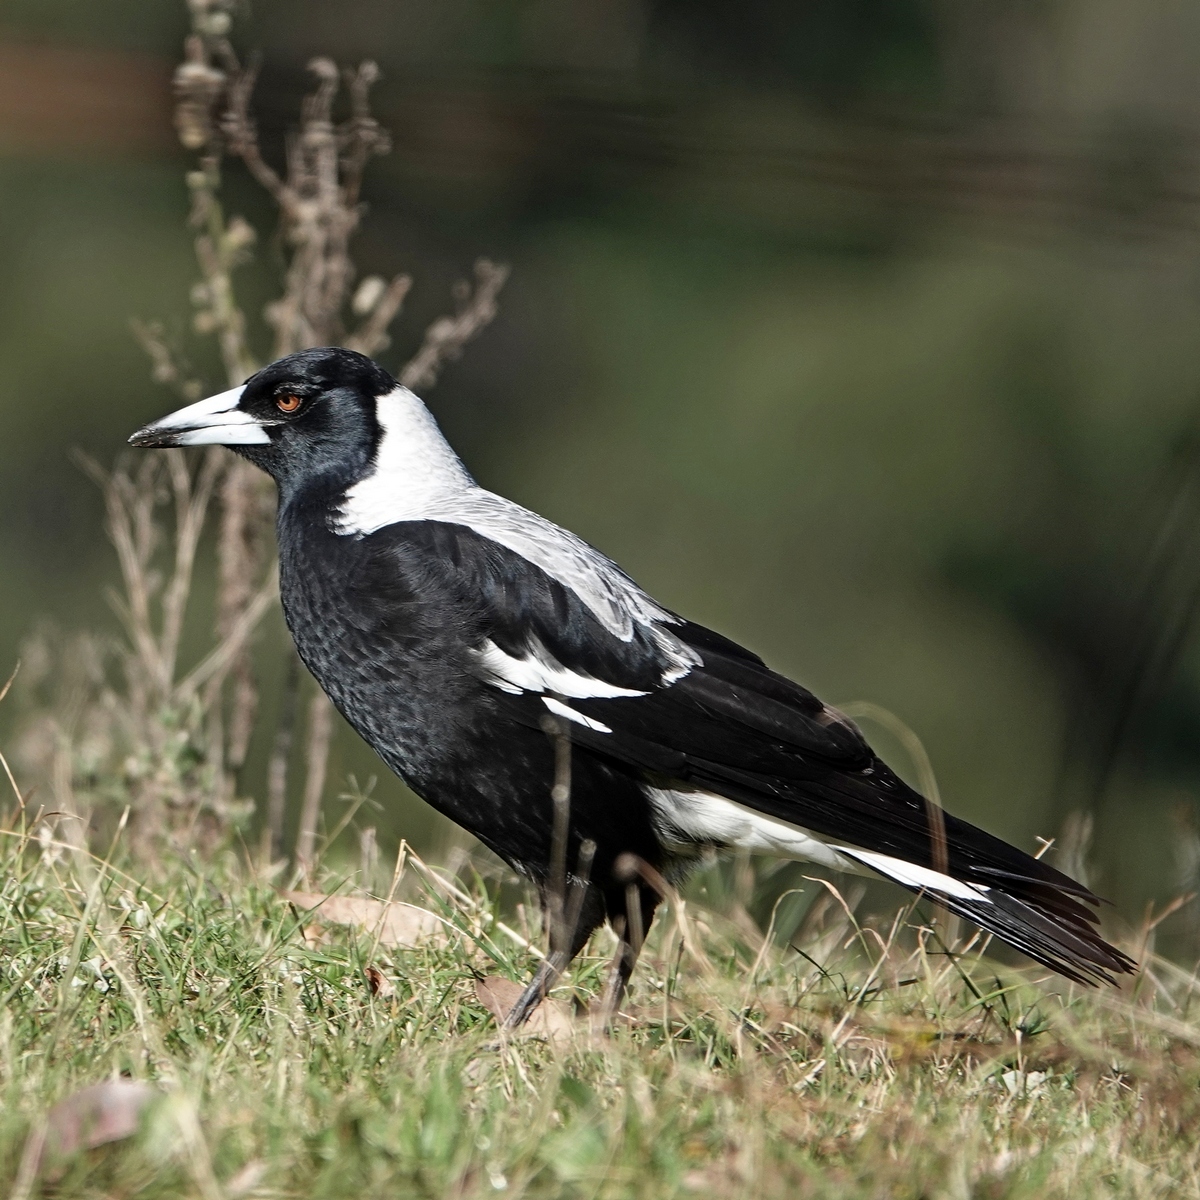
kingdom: Animalia
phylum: Chordata
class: Aves
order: Passeriformes
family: Cracticidae
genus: Gymnorhina
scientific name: Gymnorhina tibicen
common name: Australian magpie
